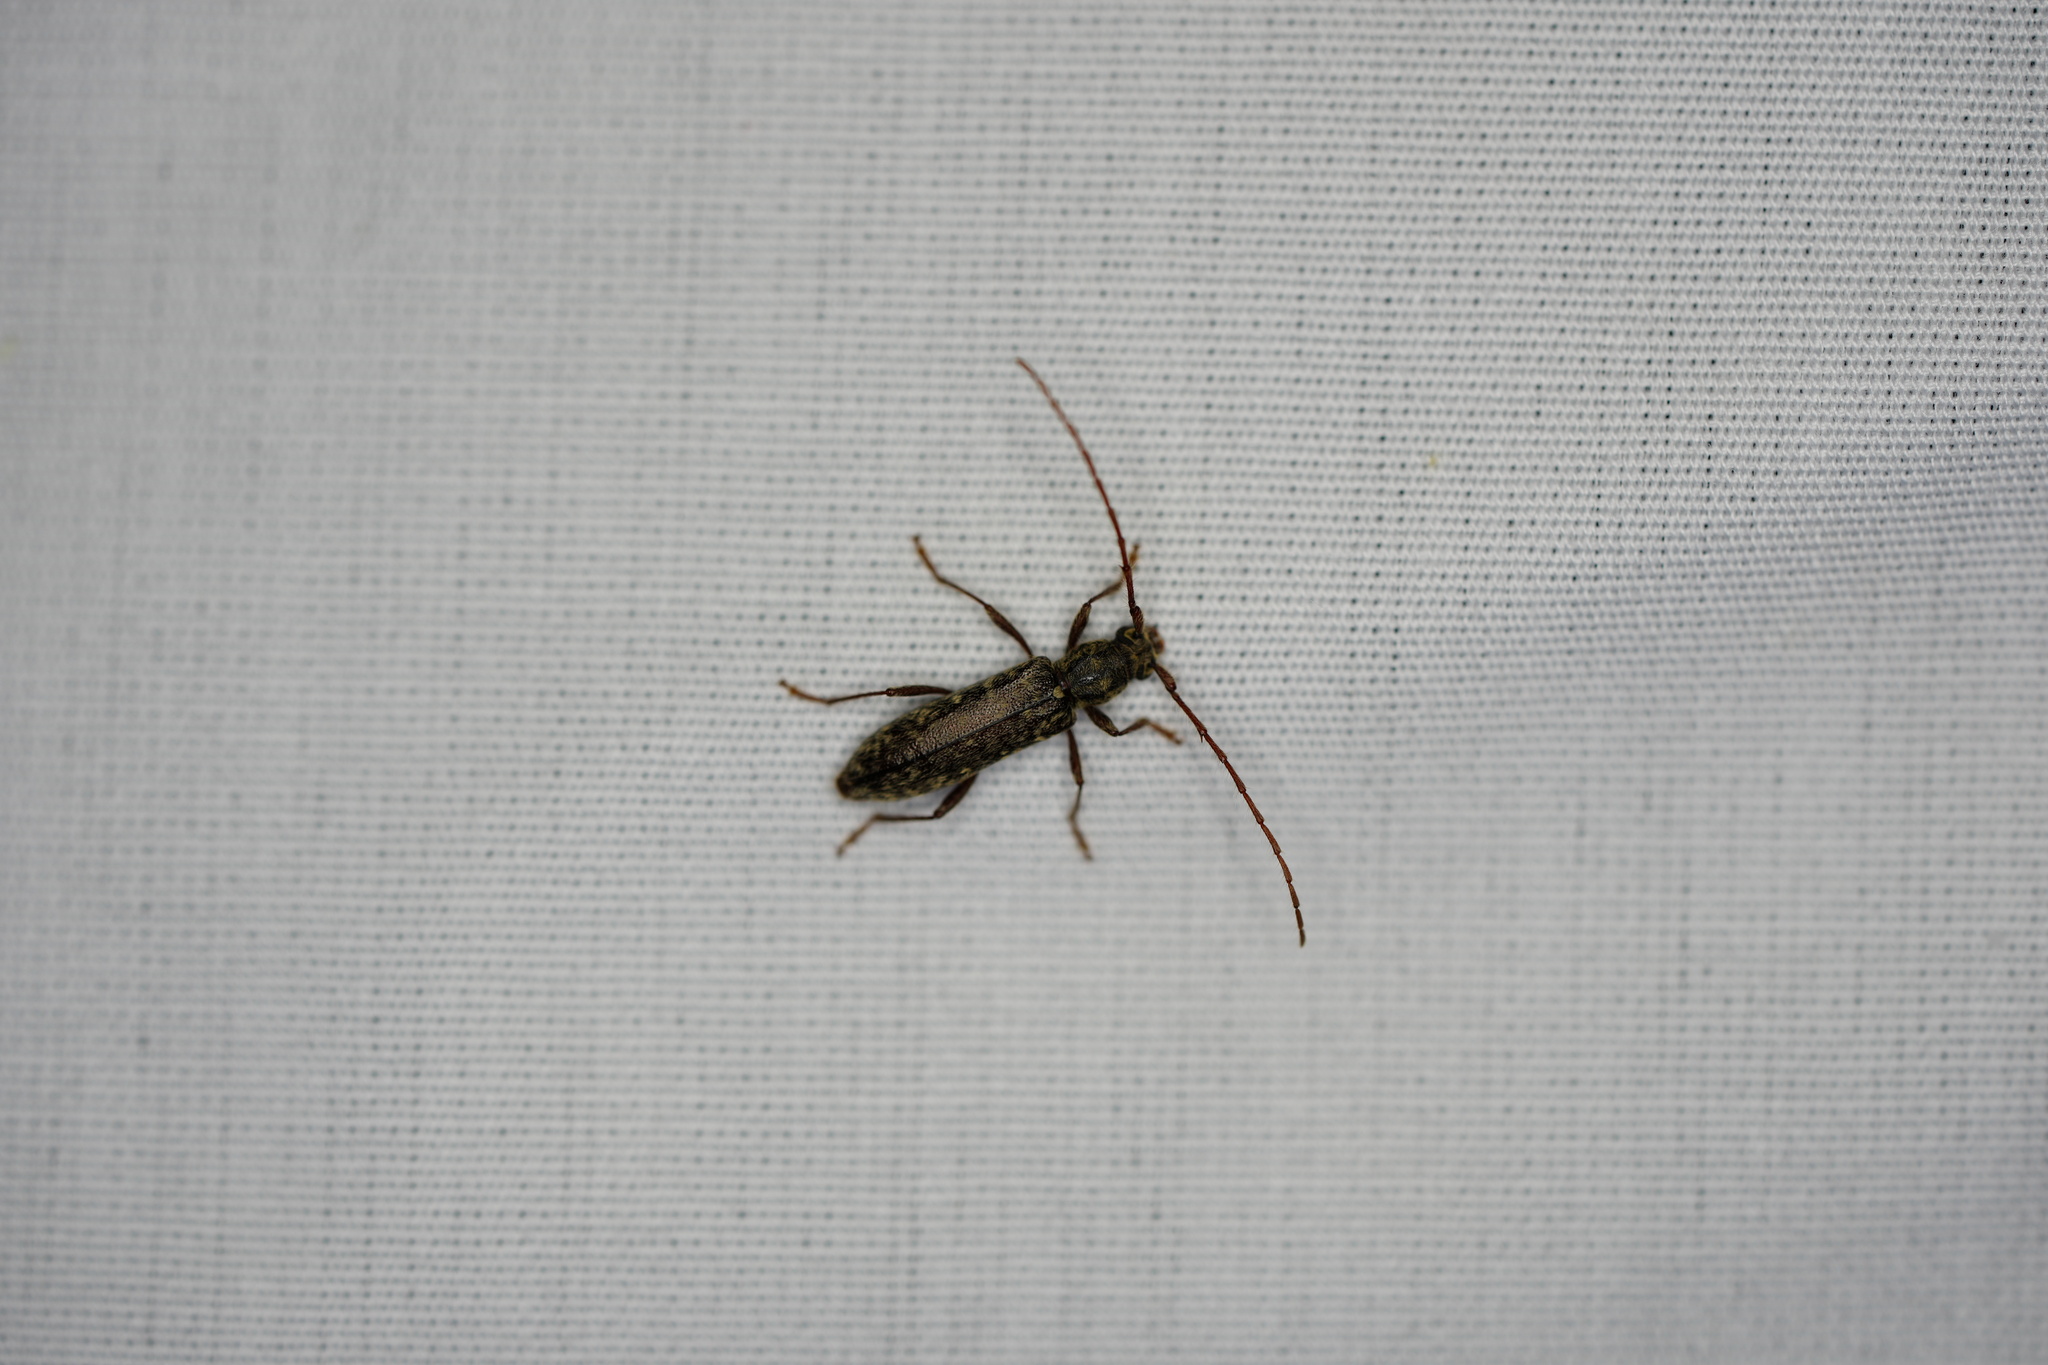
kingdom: Animalia
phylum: Arthropoda
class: Insecta
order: Coleoptera
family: Cerambycidae
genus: Anelaphus
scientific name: Anelaphus pumilus
